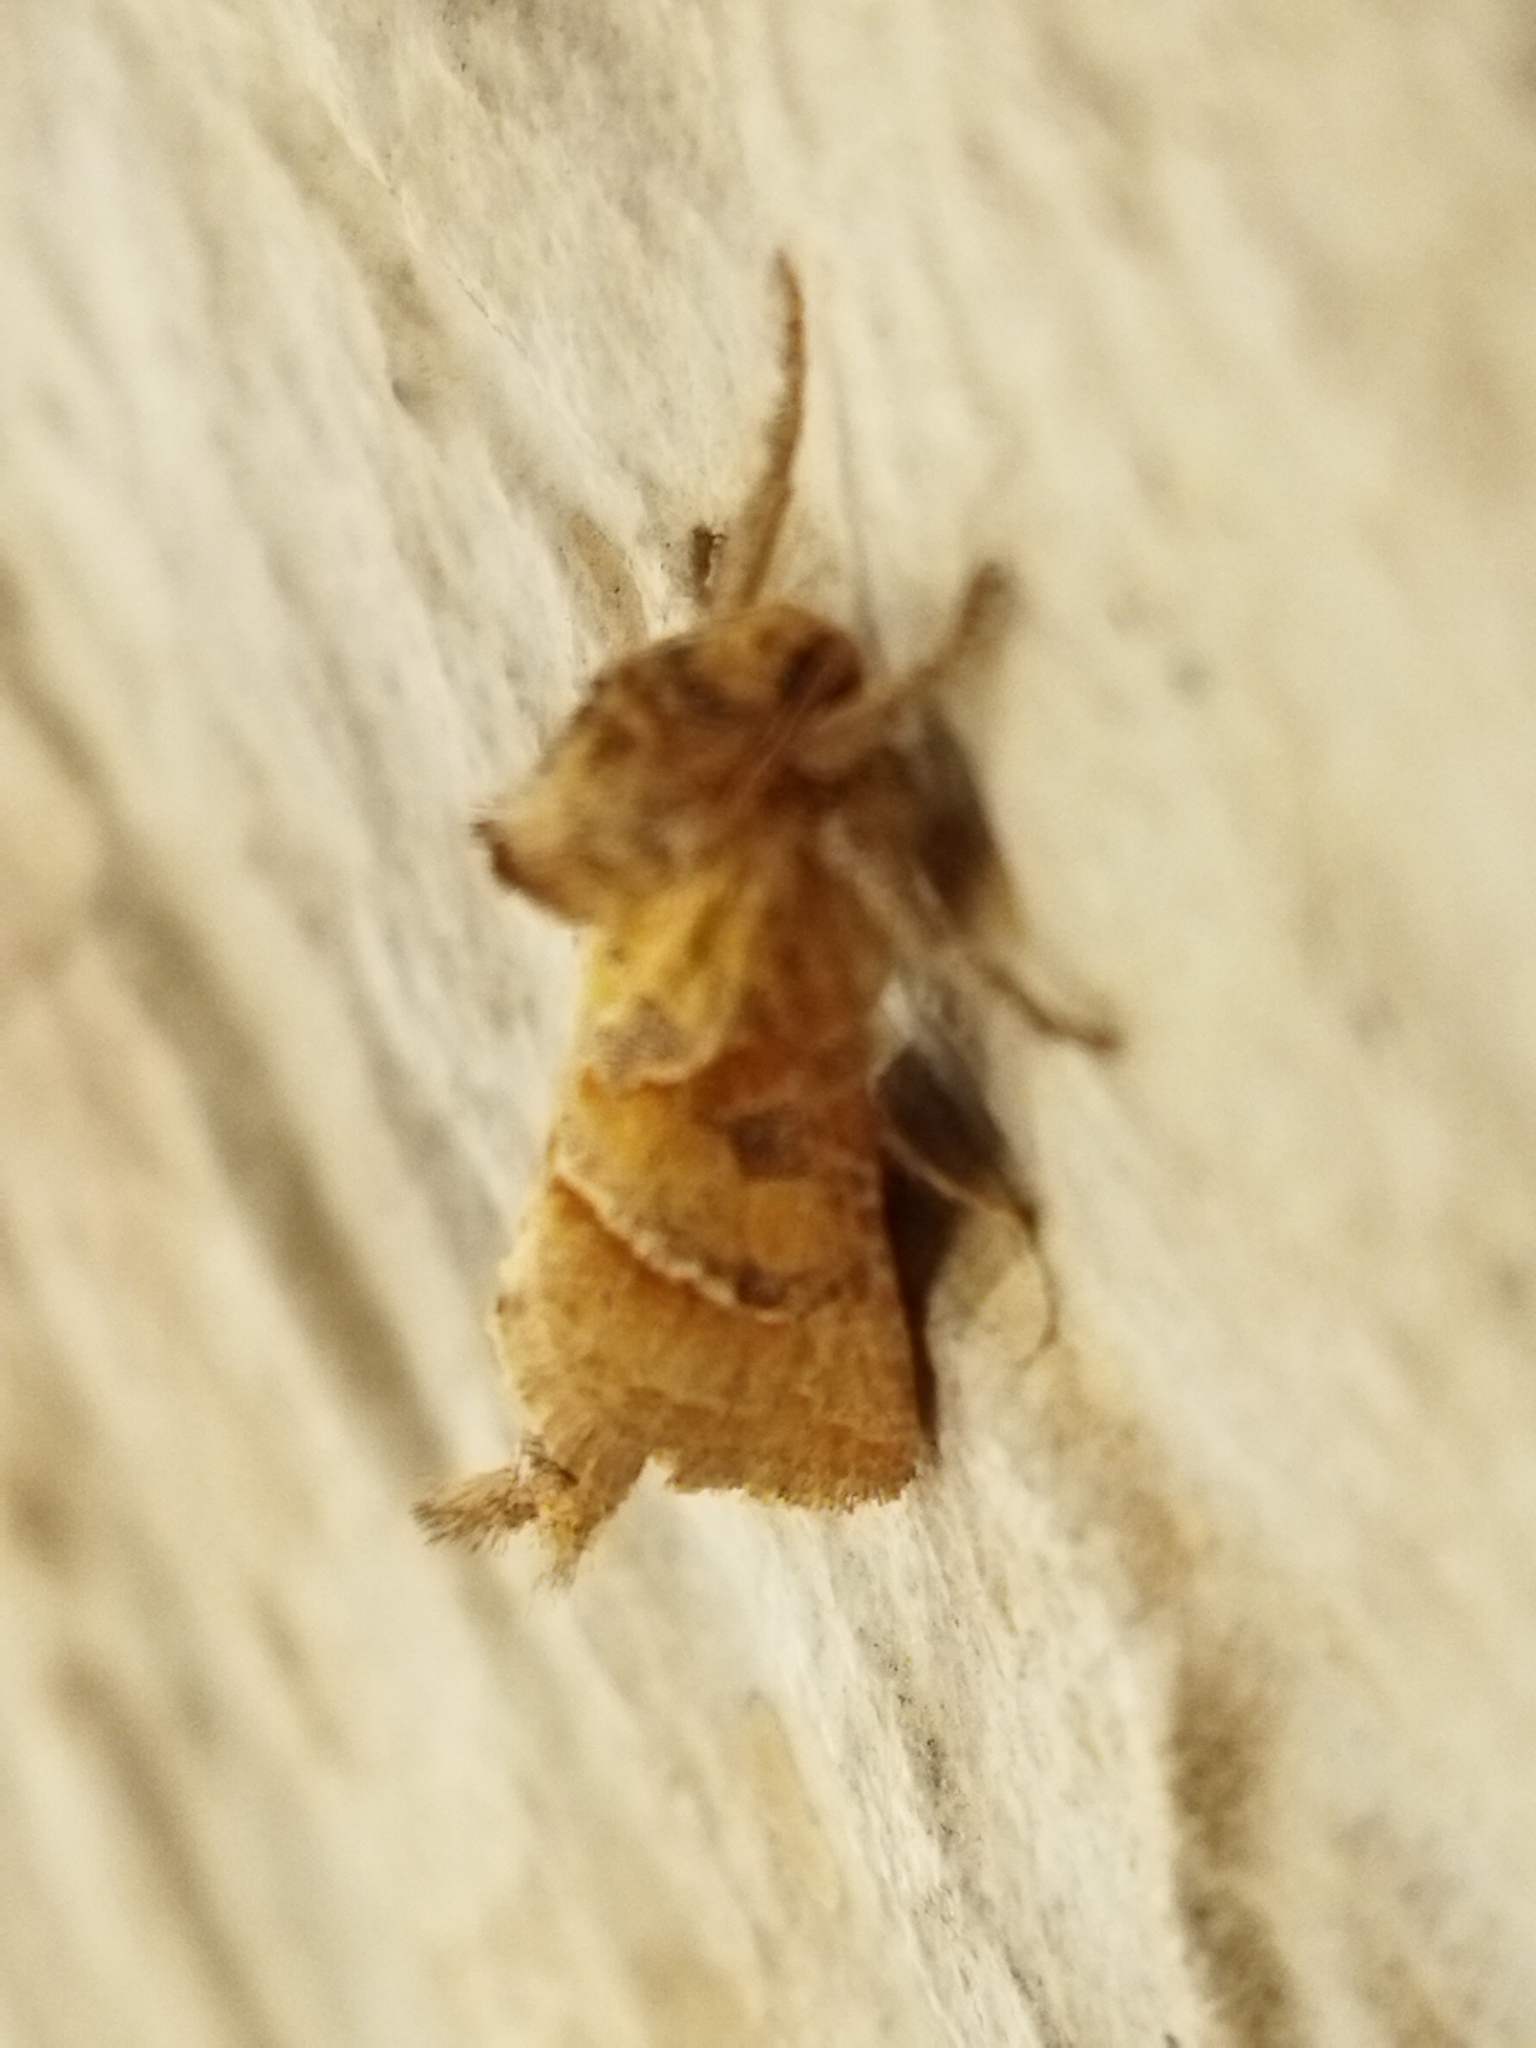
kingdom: Animalia
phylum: Arthropoda
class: Insecta
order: Lepidoptera
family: Hepialidae
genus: Triodia
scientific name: Triodia amasinus
